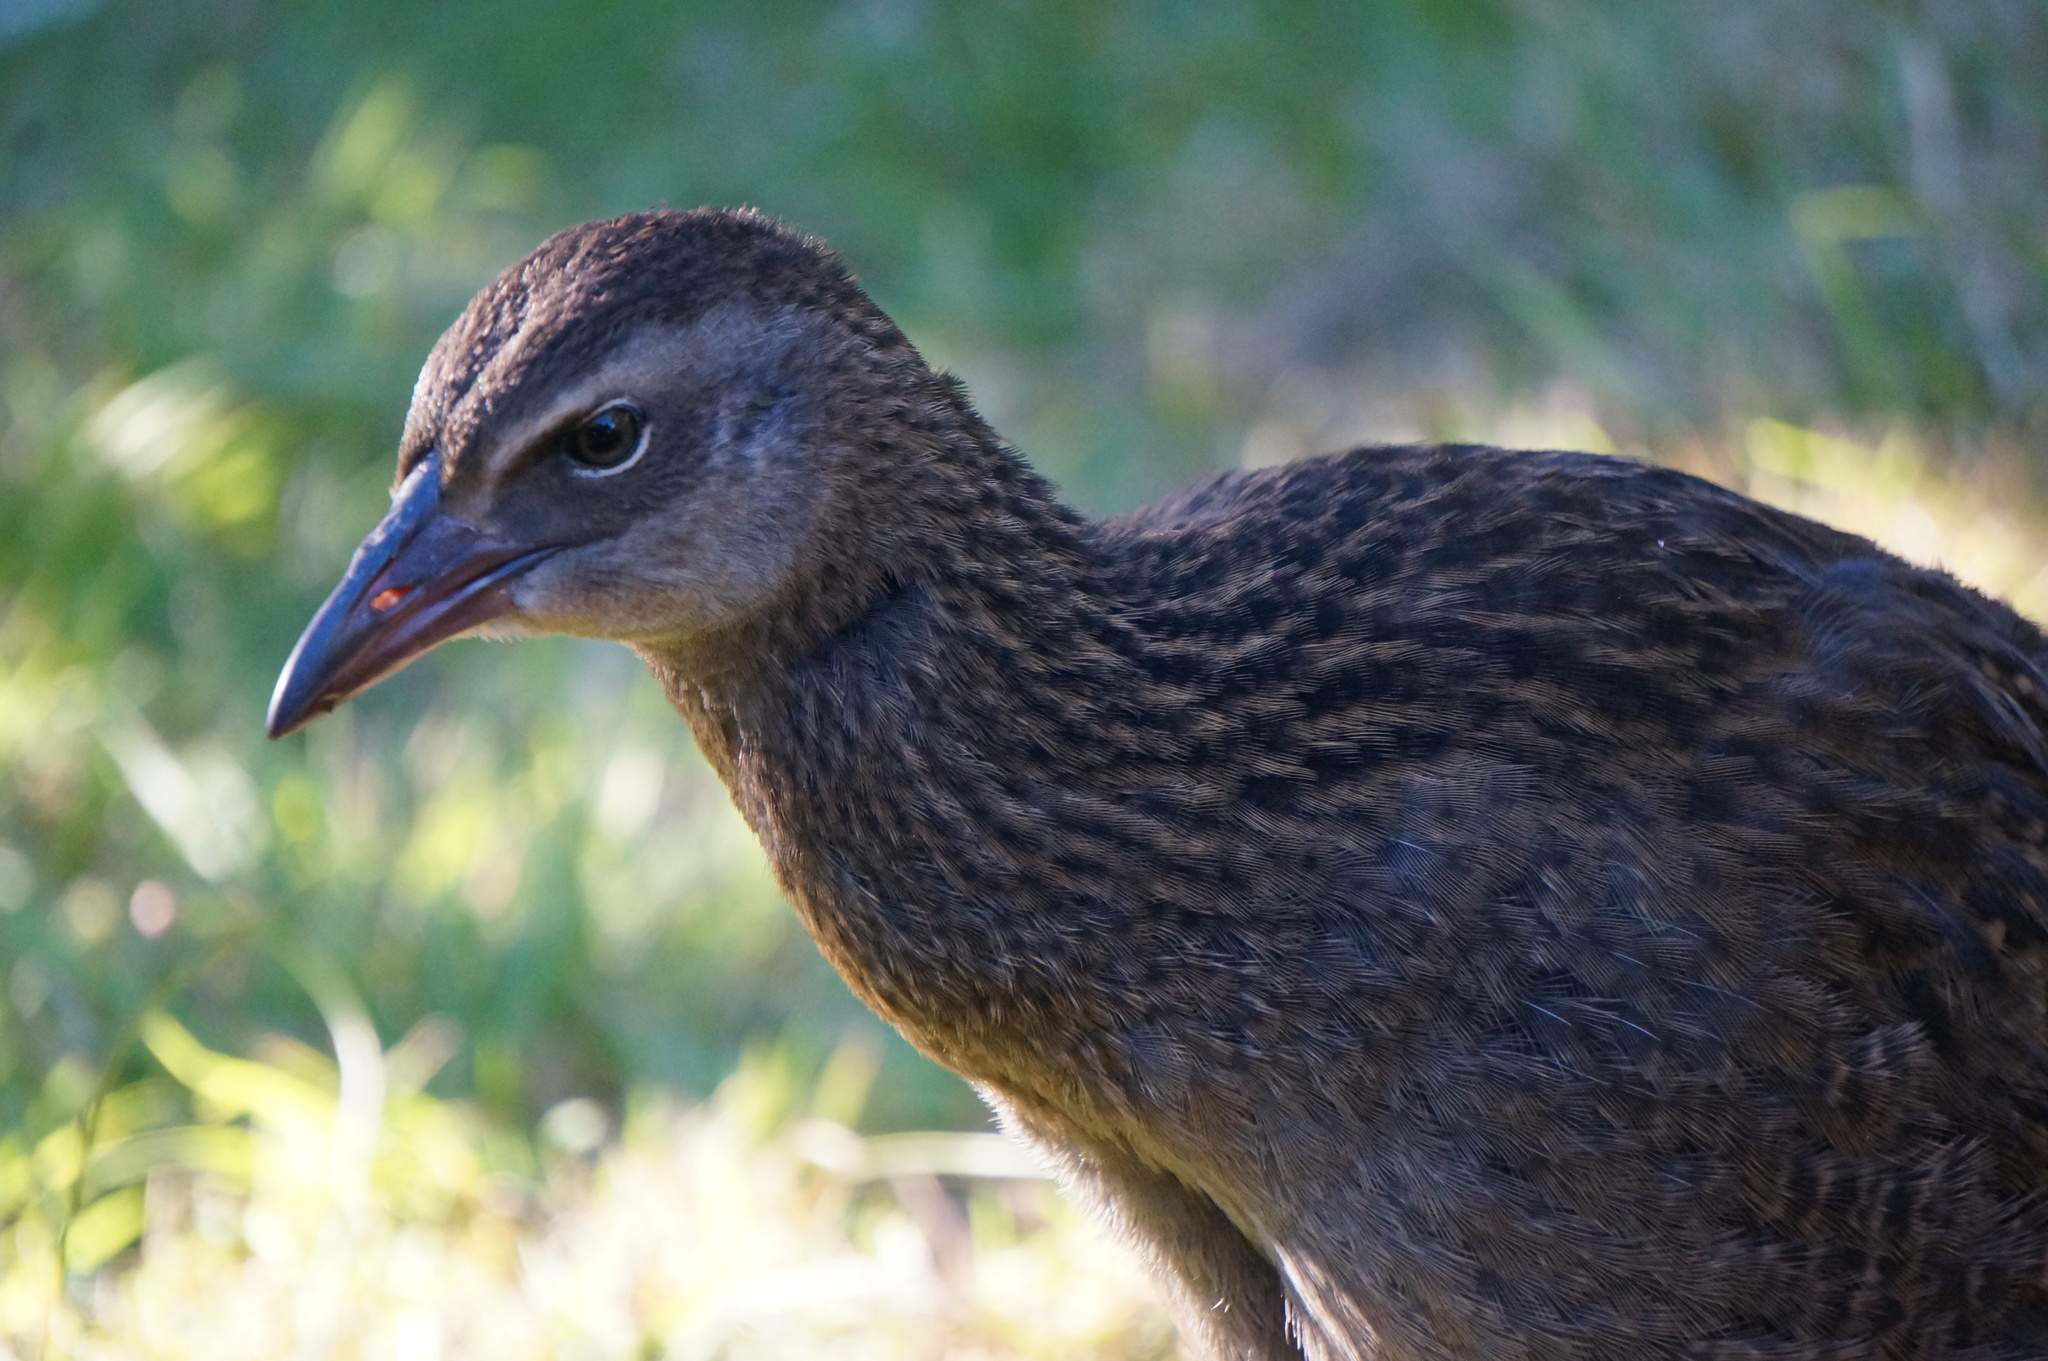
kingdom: Animalia
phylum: Chordata
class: Aves
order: Gruiformes
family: Rallidae
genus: Gallirallus
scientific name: Gallirallus australis
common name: Weka
